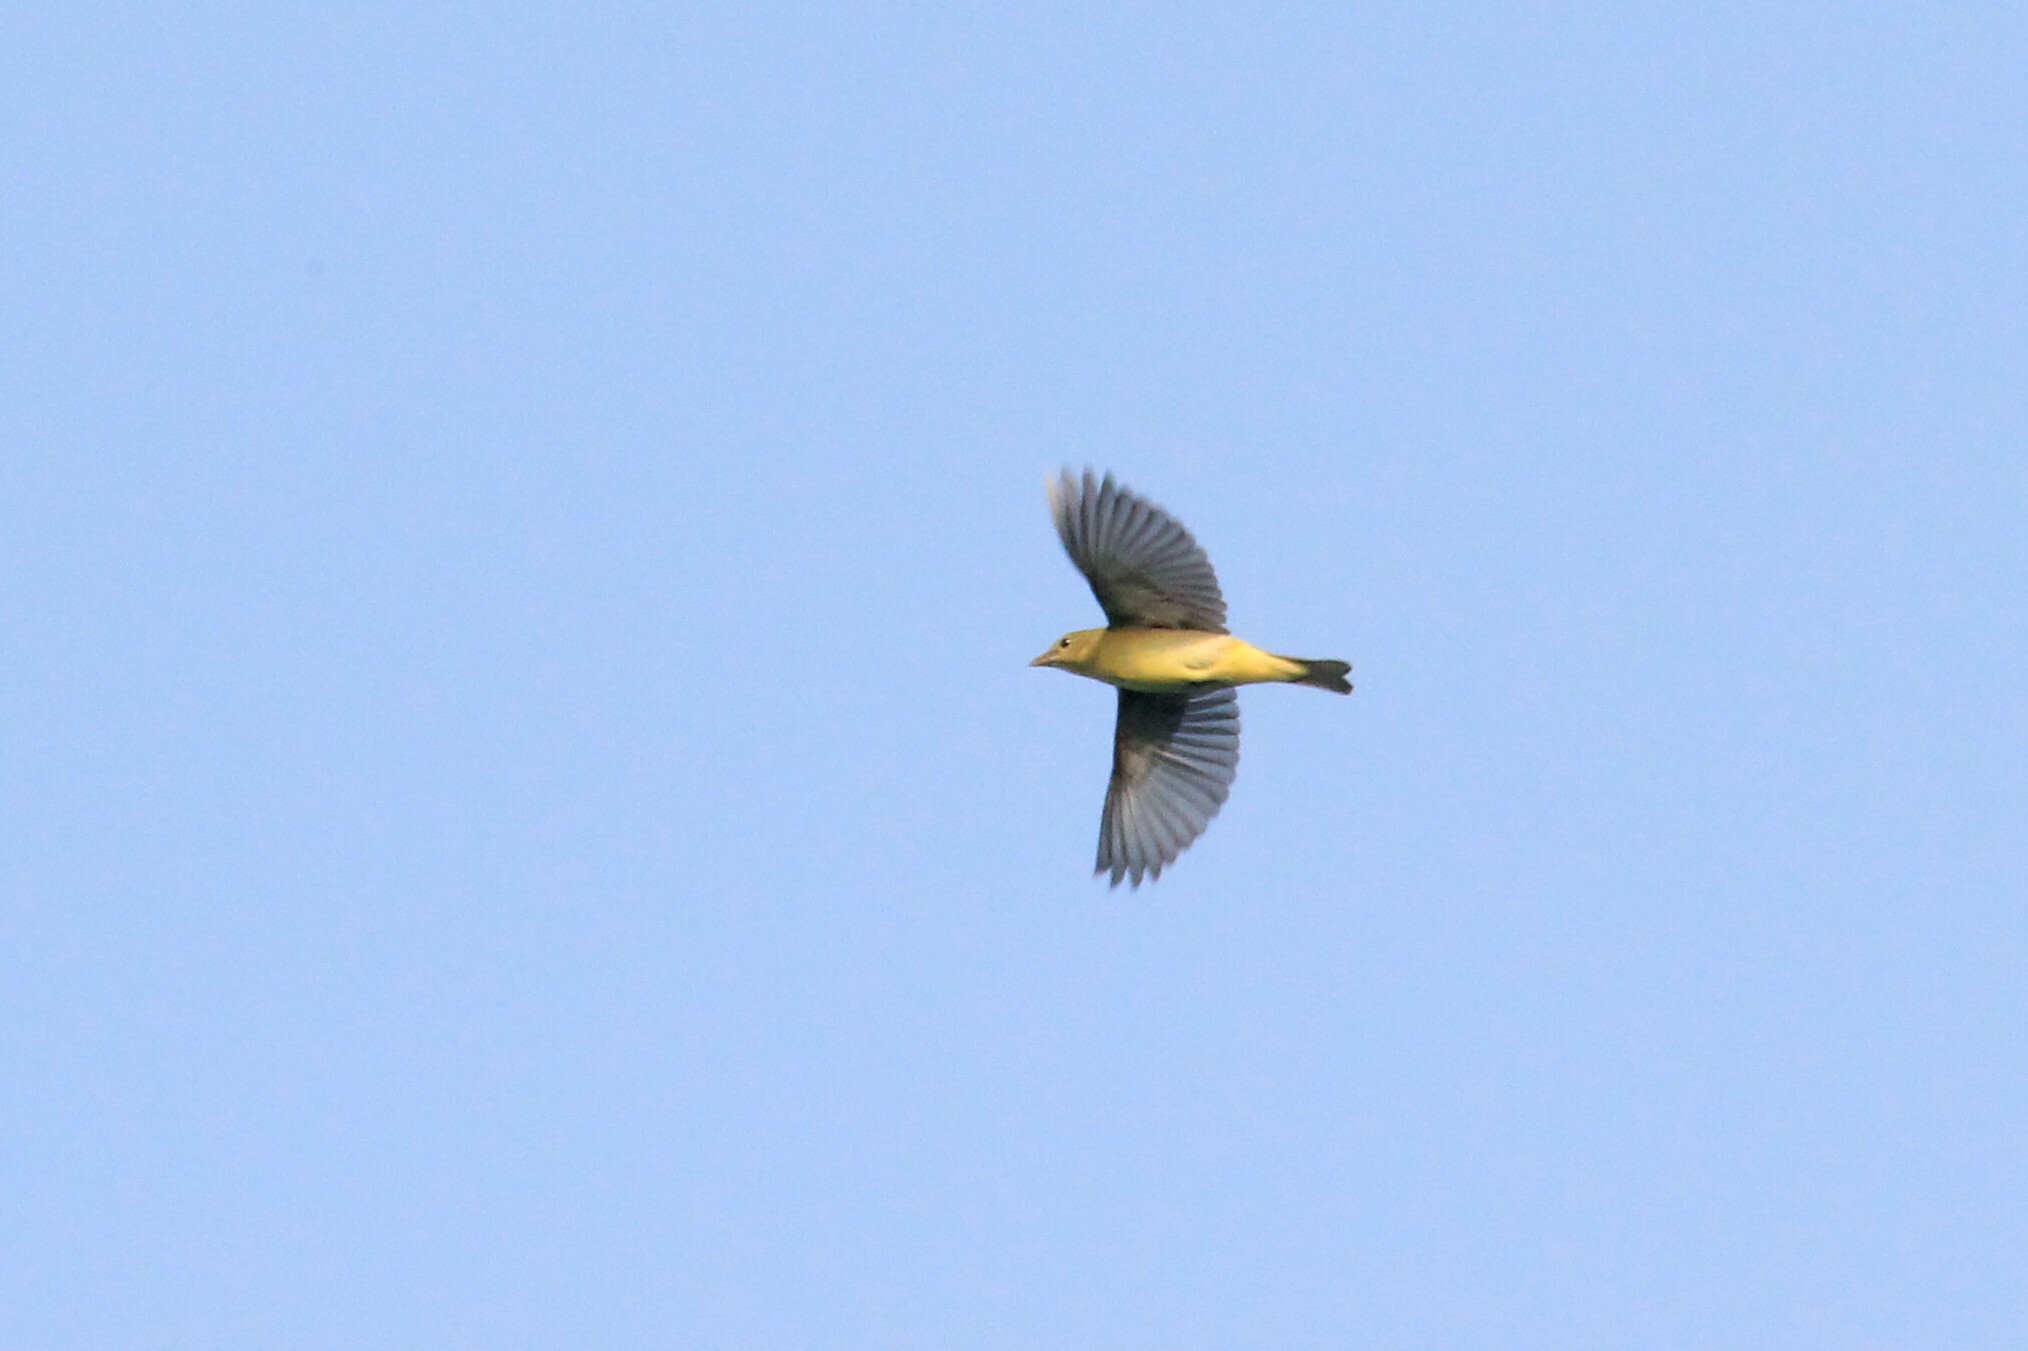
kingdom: Animalia
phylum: Chordata
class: Aves
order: Passeriformes
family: Cardinalidae
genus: Piranga
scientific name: Piranga olivacea
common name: Scarlet tanager
